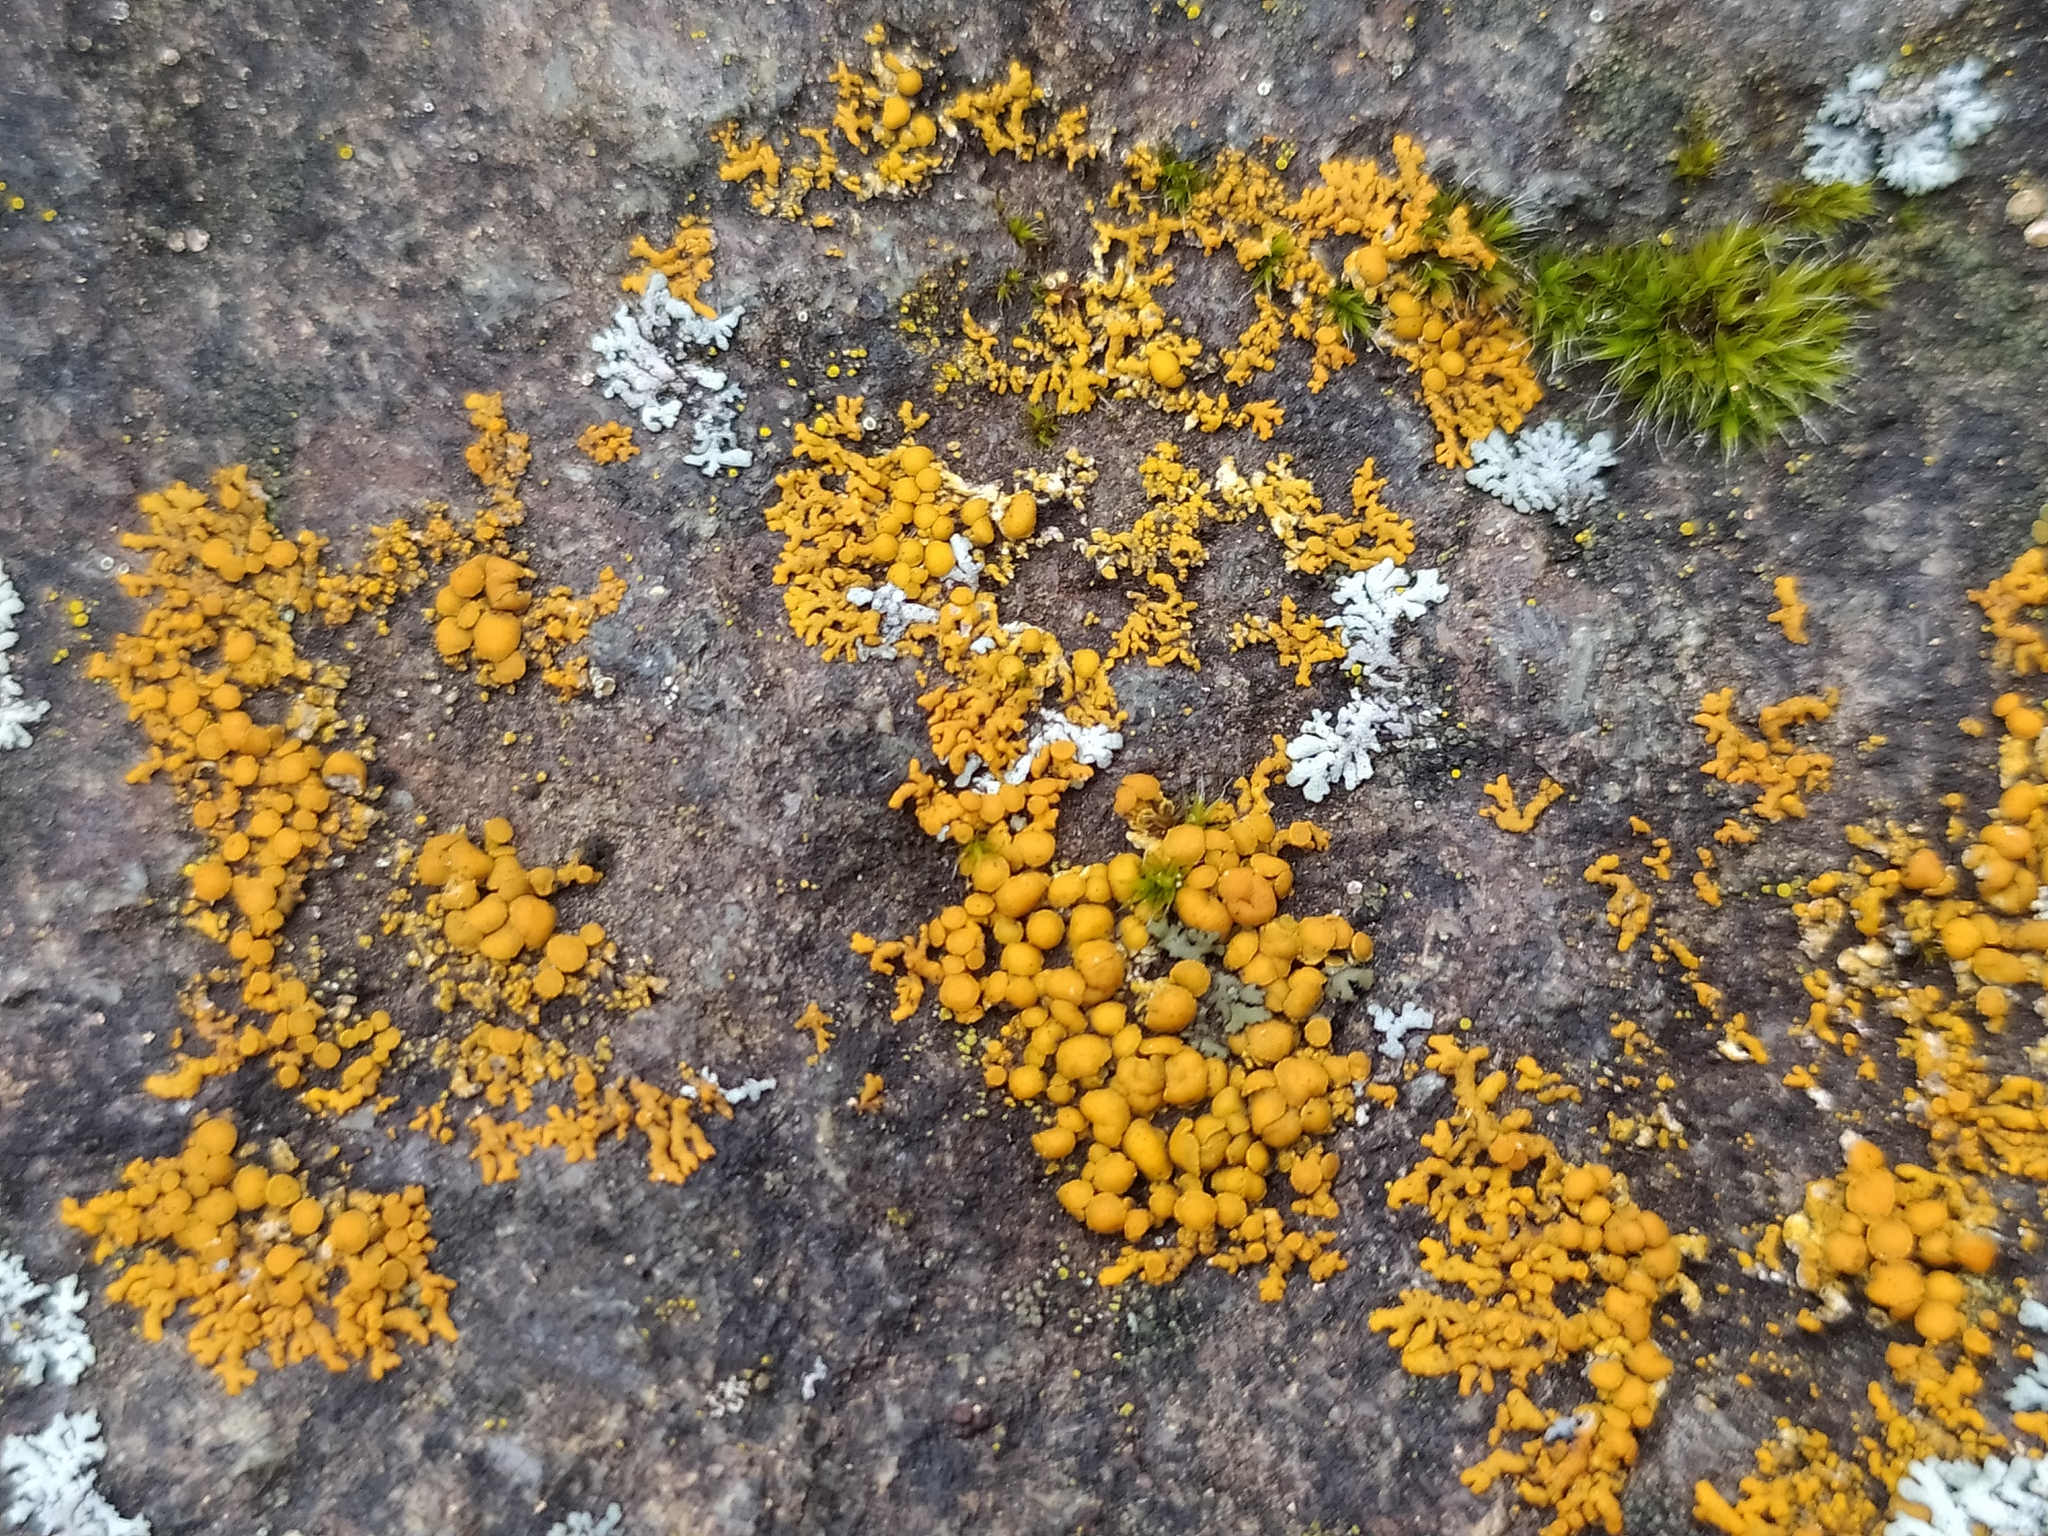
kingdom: Fungi
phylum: Ascomycota
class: Lecanoromycetes
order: Teloschistales
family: Teloschistaceae
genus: Xanthoria
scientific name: Xanthoria elegans
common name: Elegant sunburst lichen
